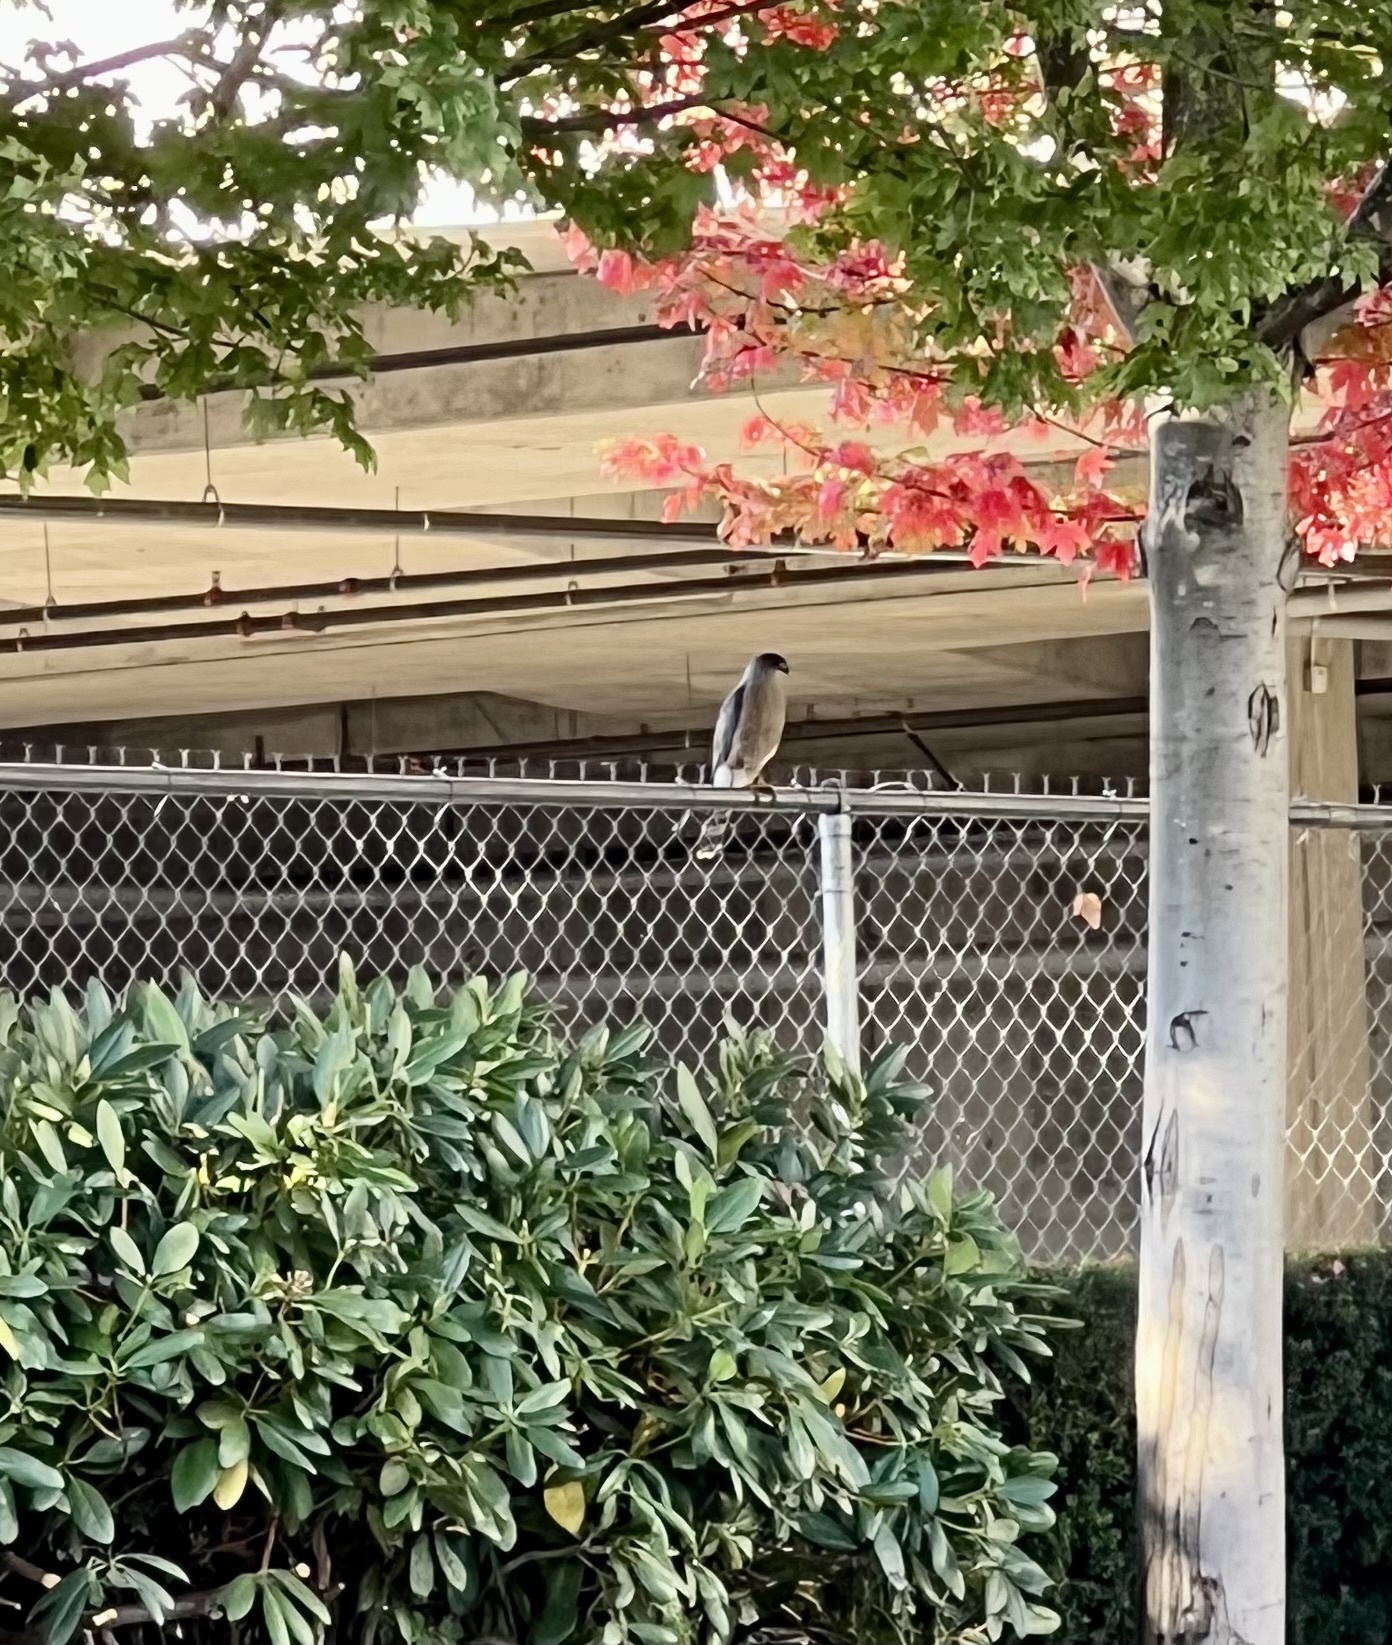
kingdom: Animalia
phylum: Chordata
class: Aves
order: Accipitriformes
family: Accipitridae
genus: Accipiter
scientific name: Accipiter cooperii
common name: Cooper's hawk
